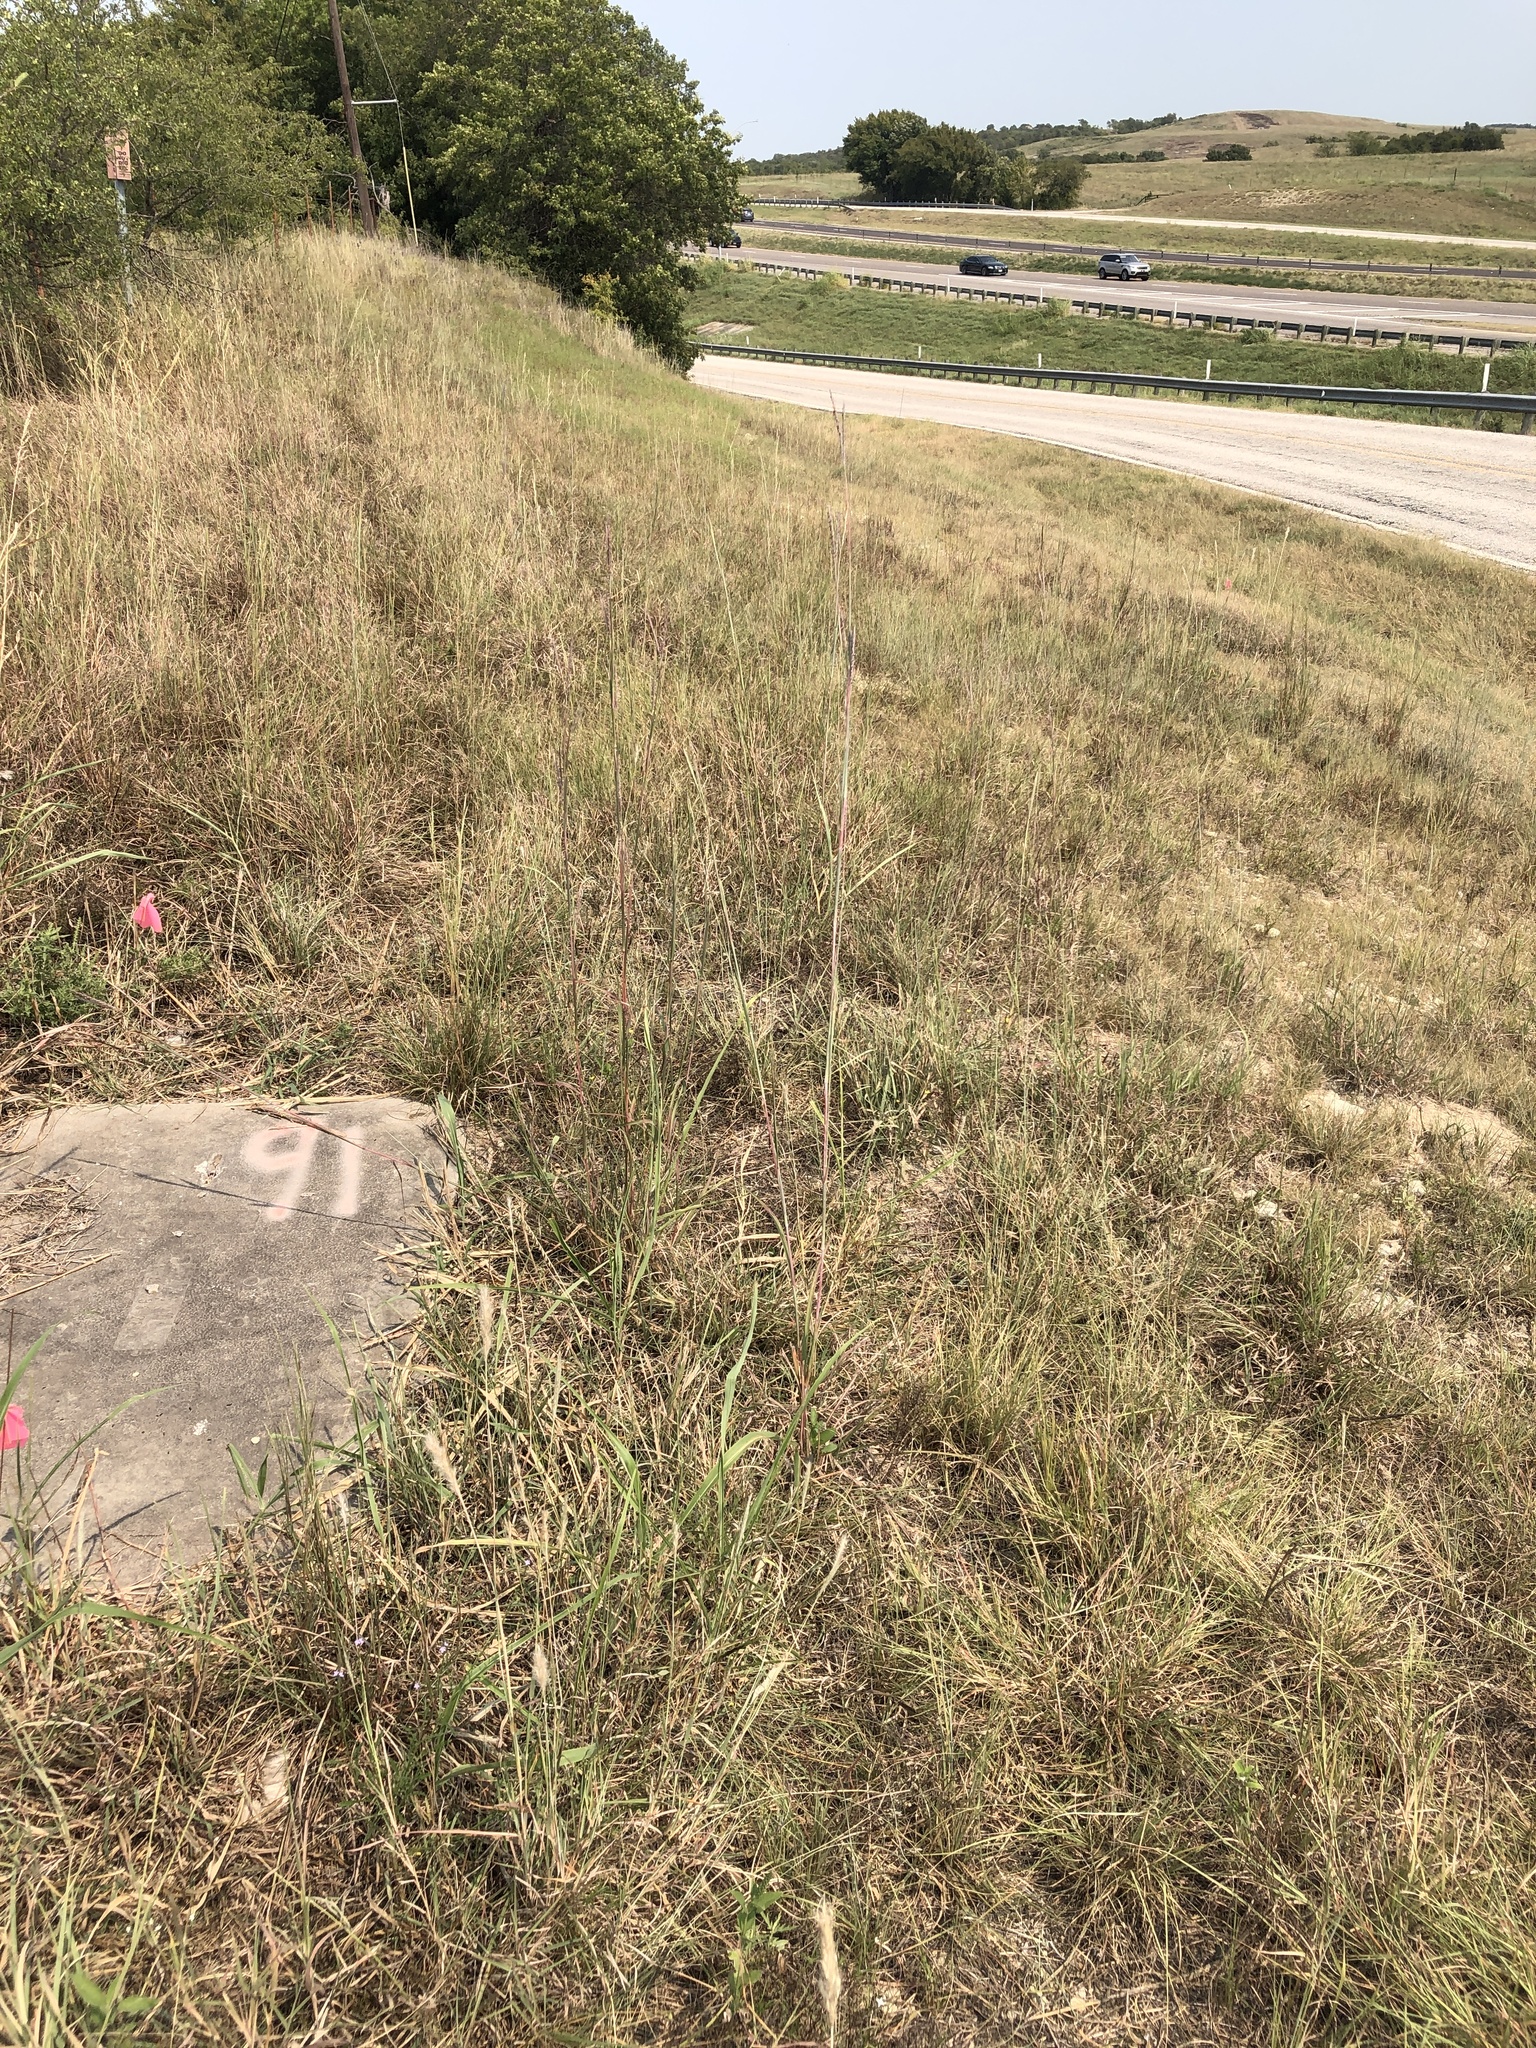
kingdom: Plantae
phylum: Tracheophyta
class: Liliopsida
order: Poales
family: Poaceae
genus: Andropogon
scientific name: Andropogon gerardi
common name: Big bluestem
